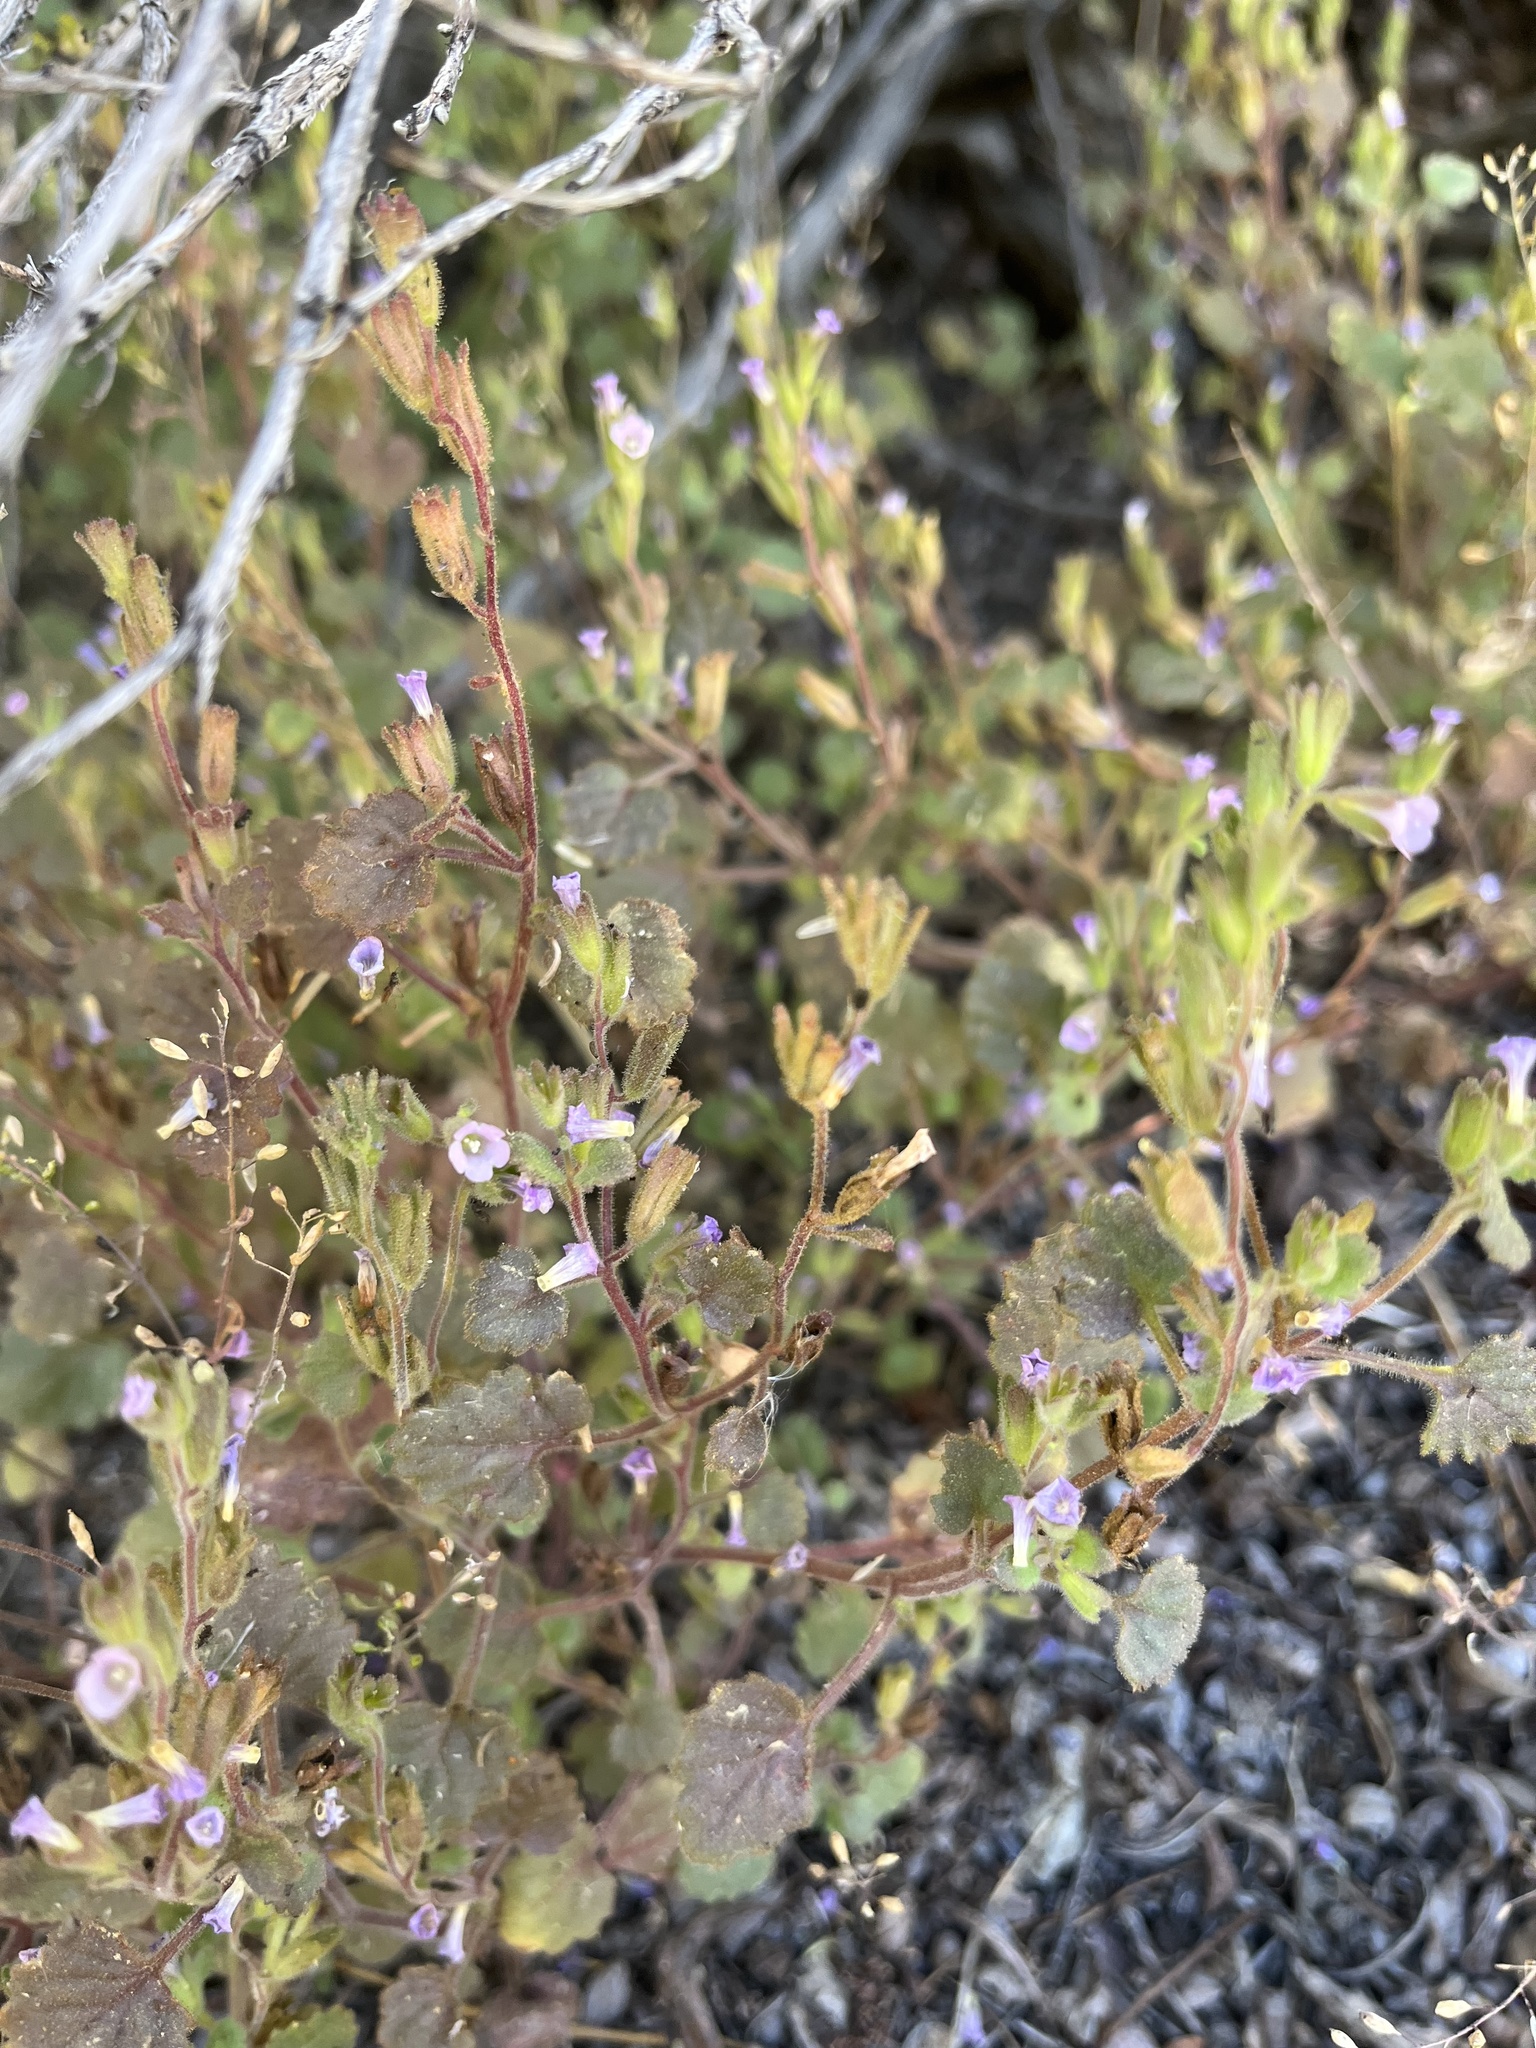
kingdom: Plantae
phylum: Tracheophyta
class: Magnoliopsida
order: Boraginales
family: Hydrophyllaceae
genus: Phacelia
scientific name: Phacelia peirsoniana
